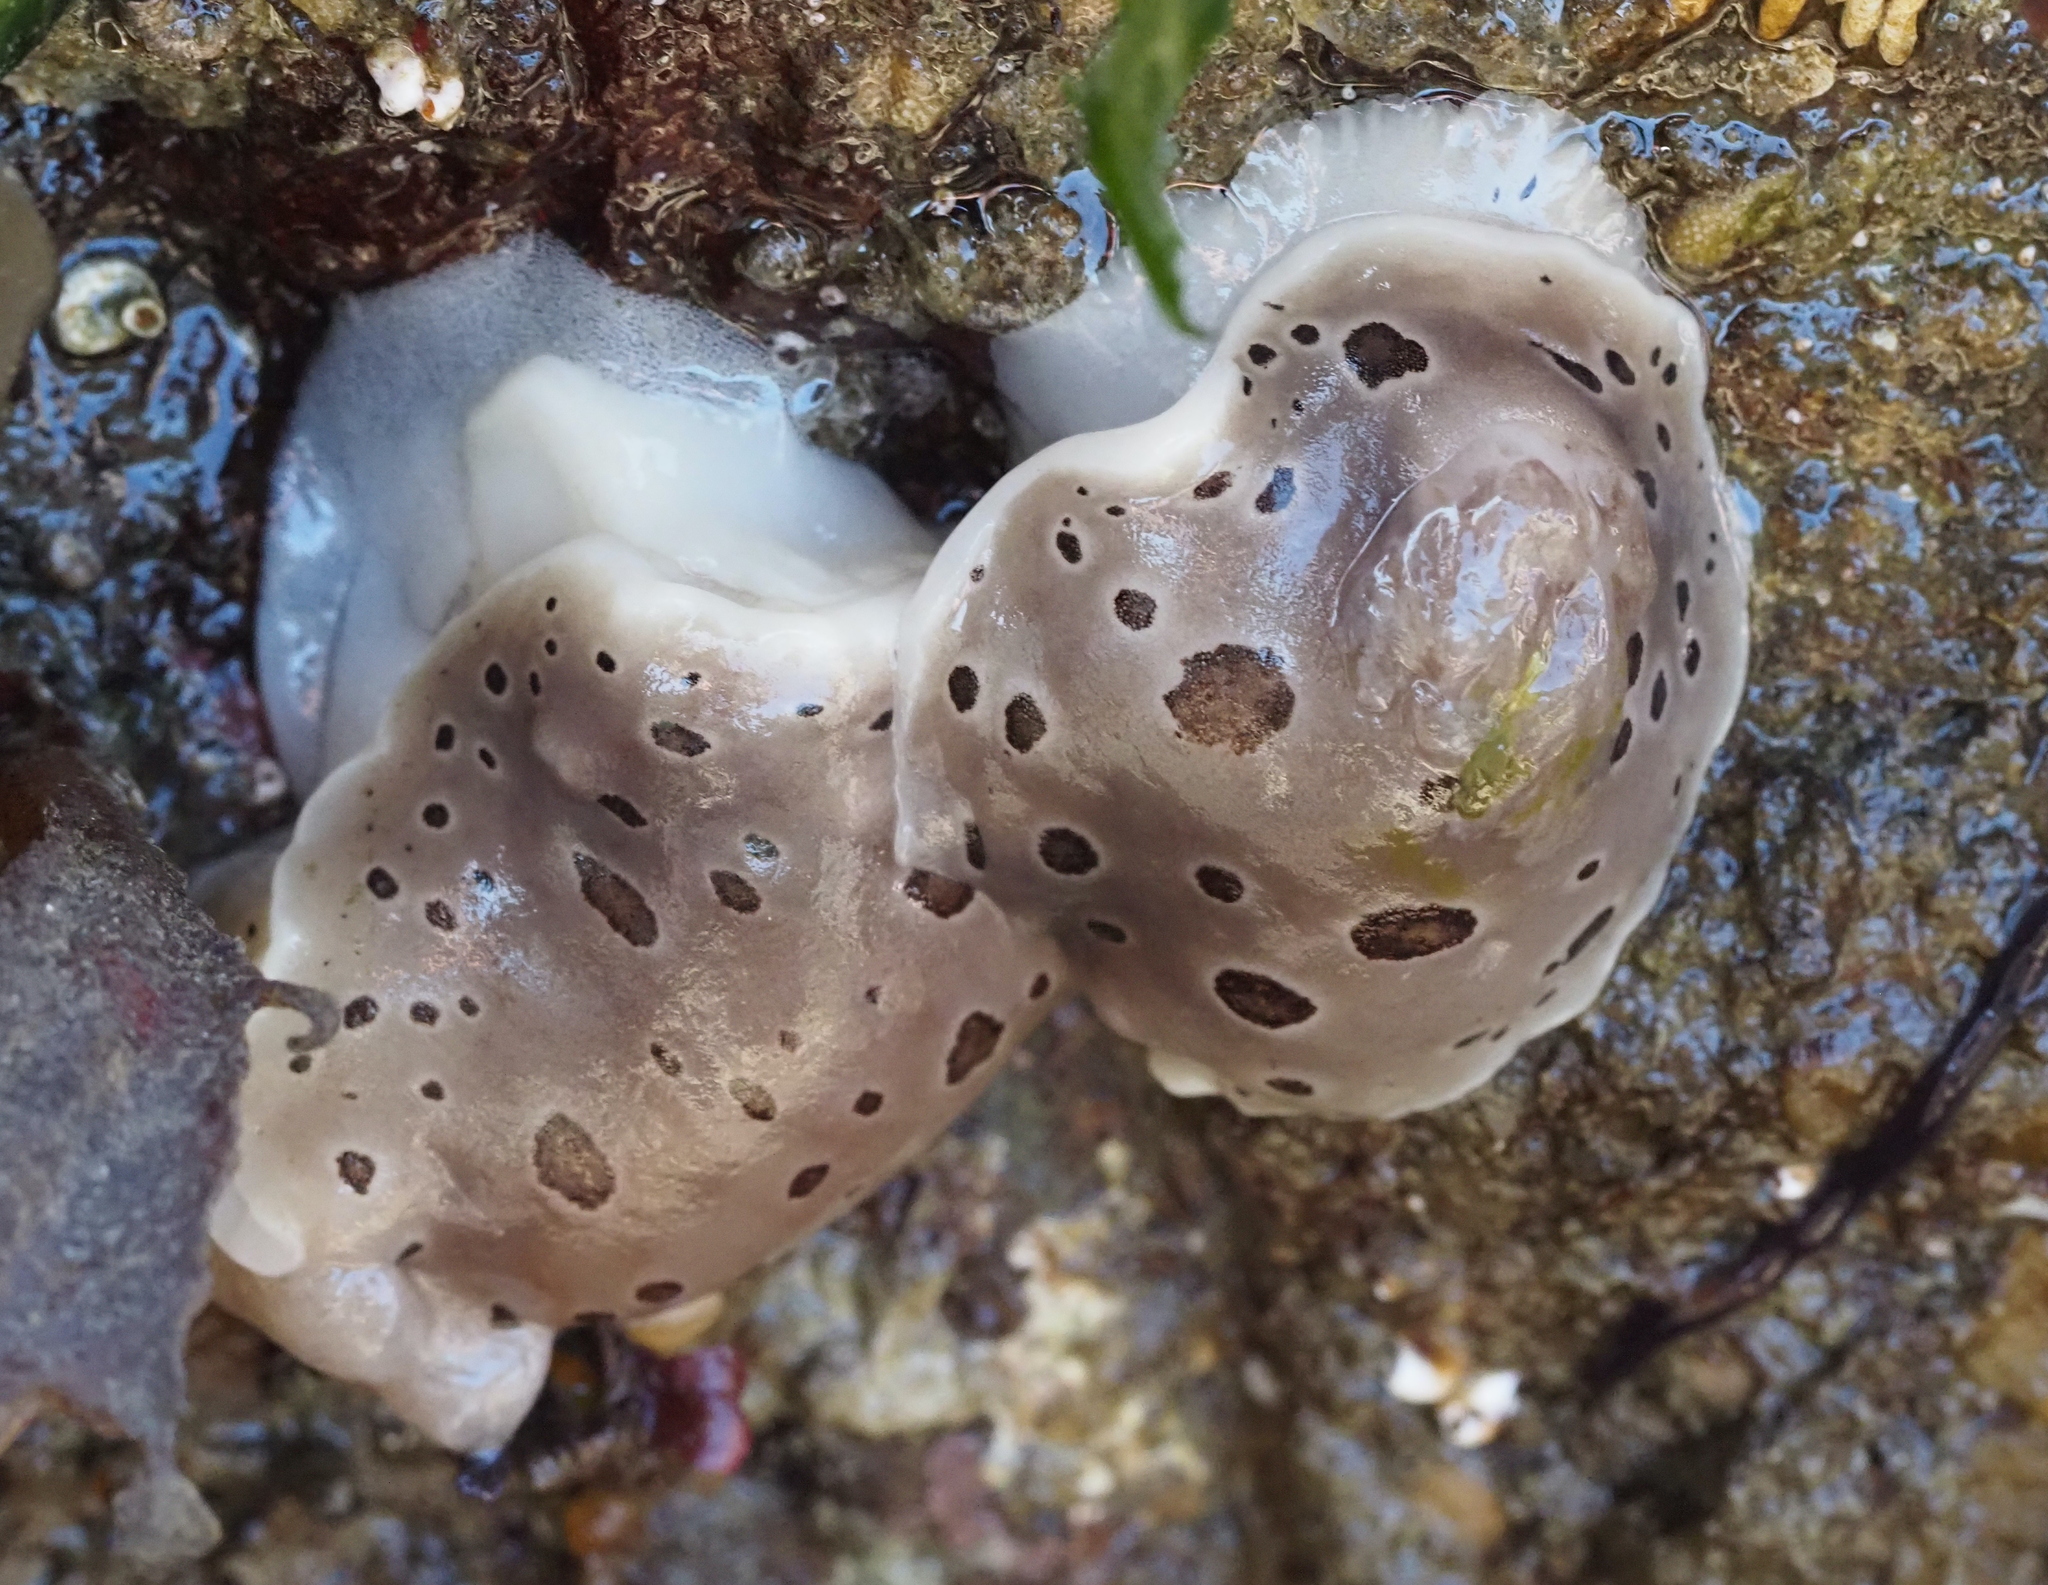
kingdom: Animalia
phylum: Mollusca
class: Gastropoda
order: Nudibranchia
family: Discodorididae
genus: Diaulula
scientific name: Diaulula odonoghuei
